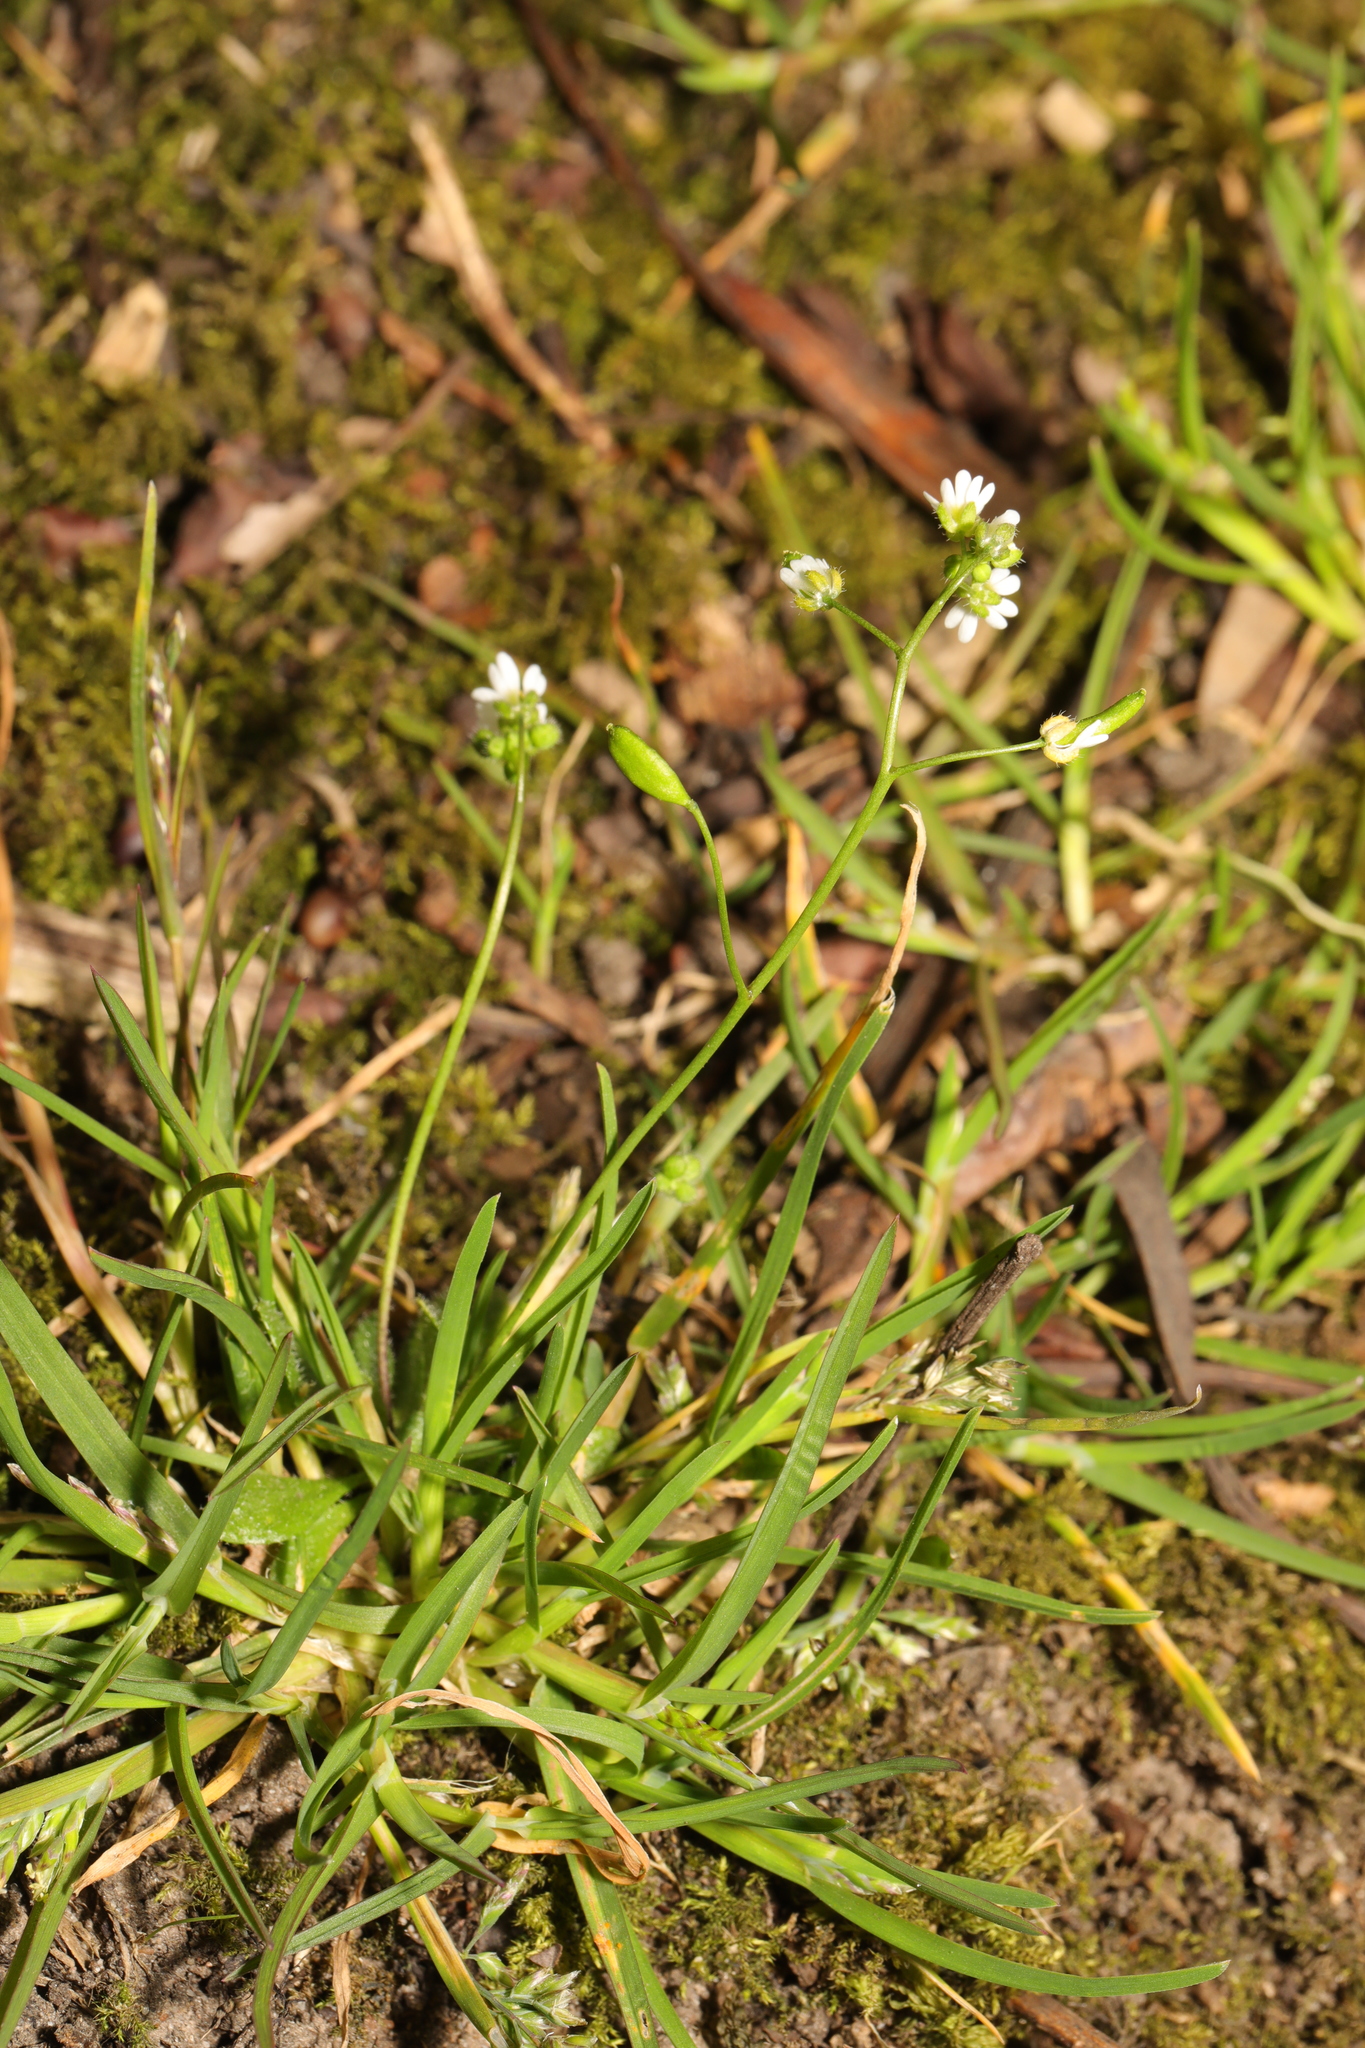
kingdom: Plantae
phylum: Tracheophyta
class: Magnoliopsida
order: Brassicales
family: Brassicaceae
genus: Draba
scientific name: Draba verna
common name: Spring draba
